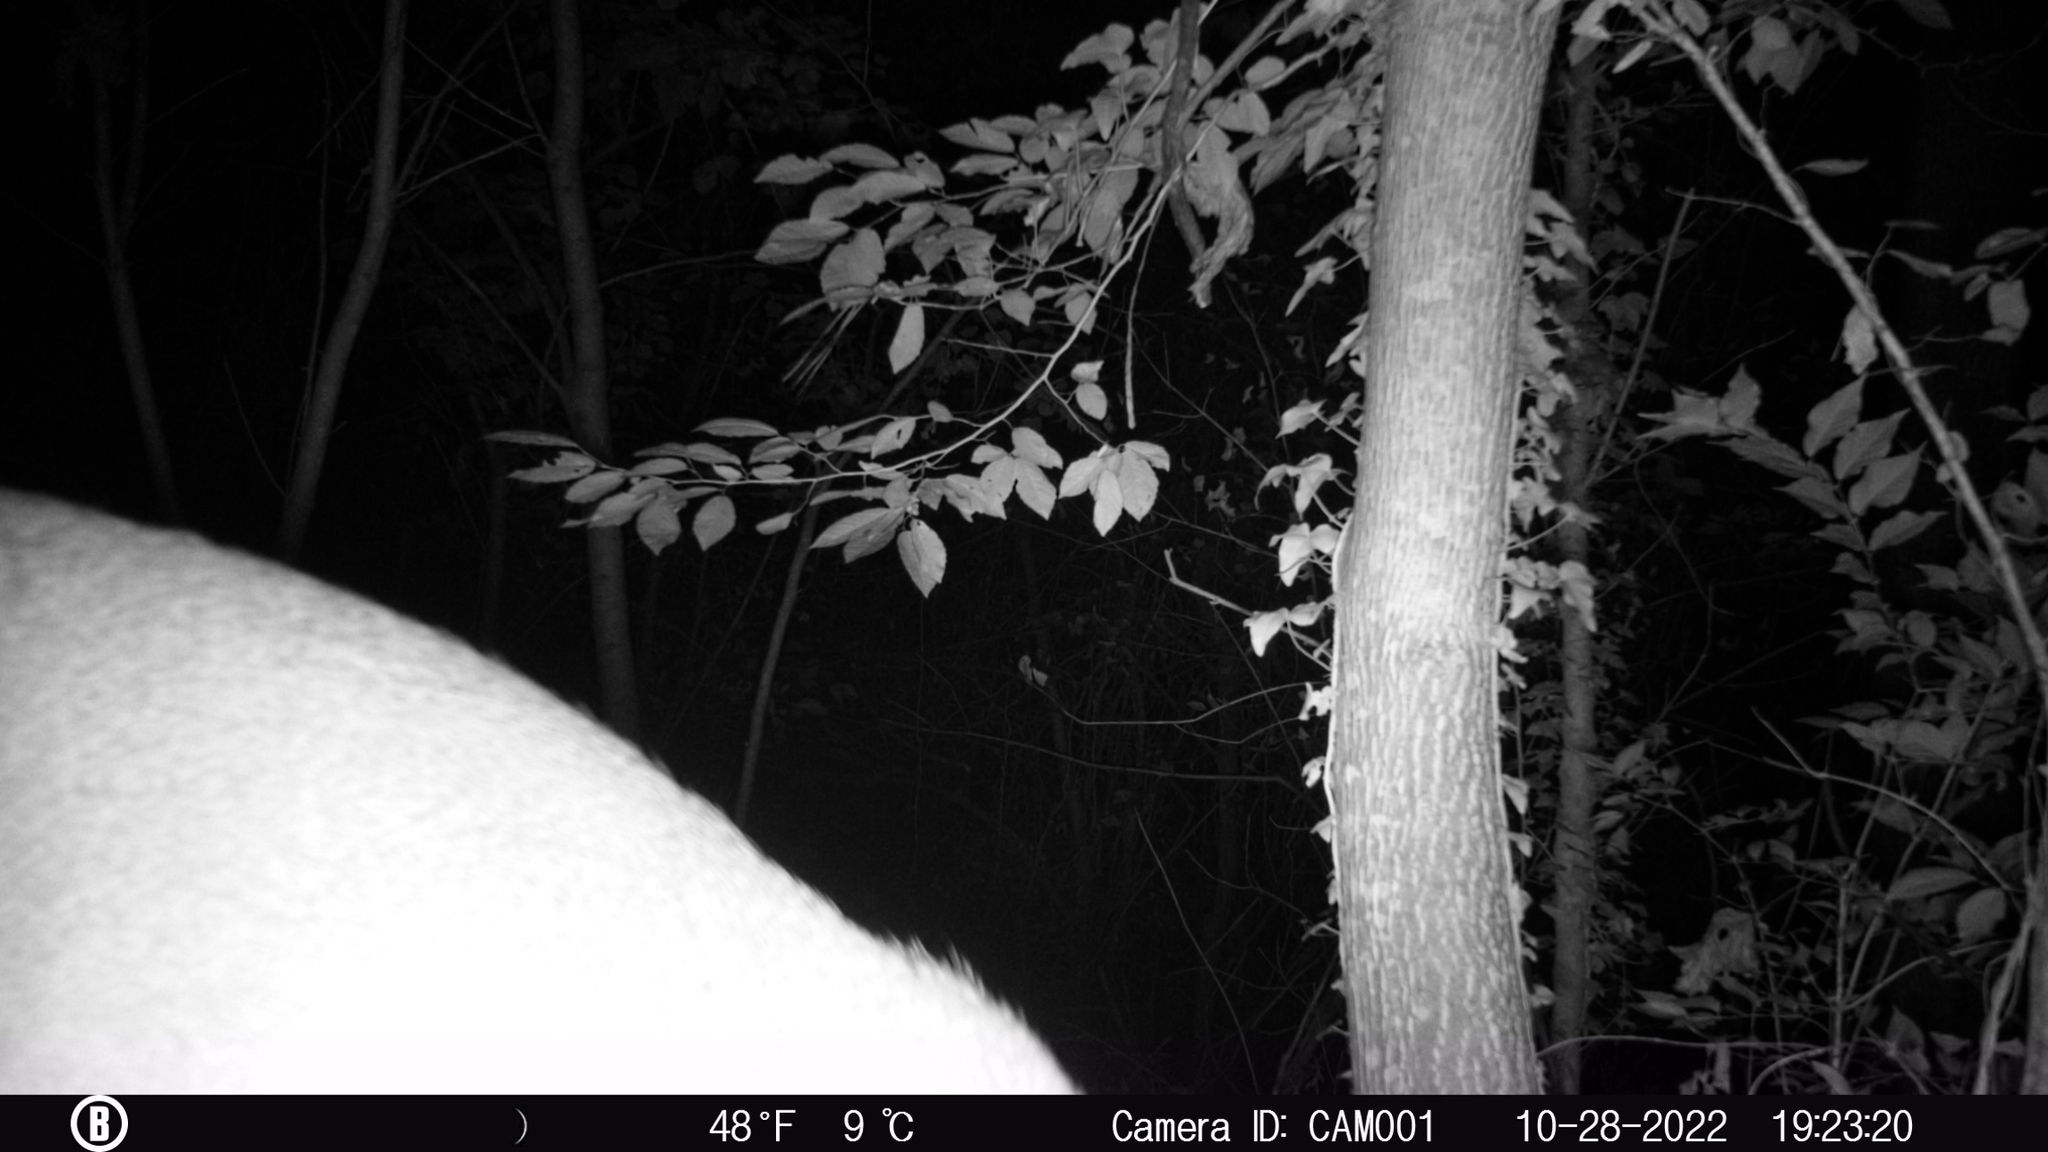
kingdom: Animalia
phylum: Chordata
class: Mammalia
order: Artiodactyla
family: Cervidae
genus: Odocoileus
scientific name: Odocoileus virginianus
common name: White-tailed deer
